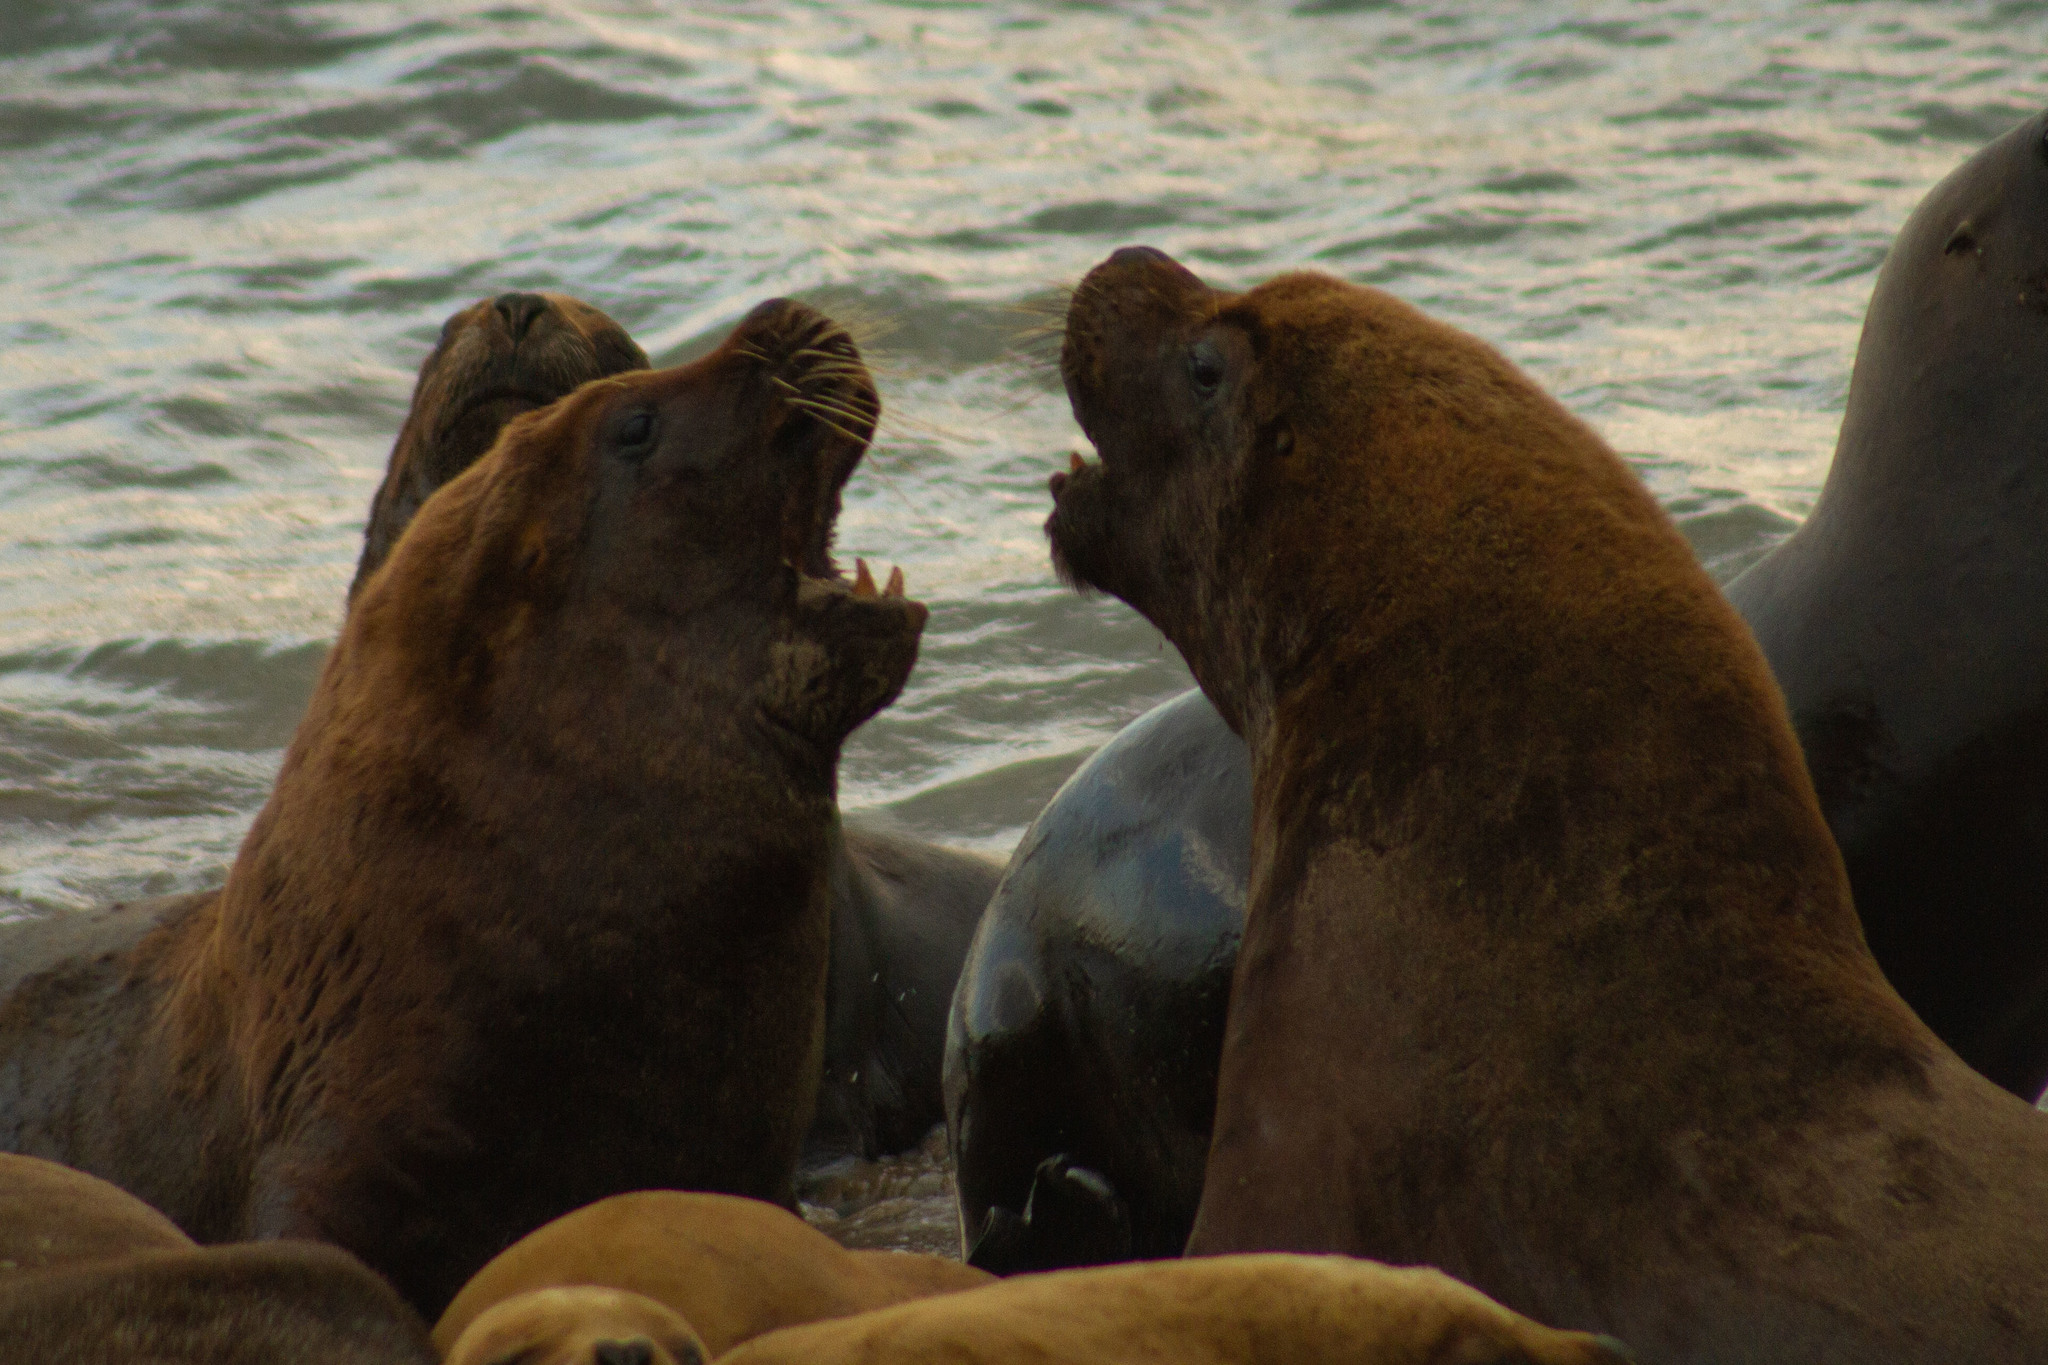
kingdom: Animalia
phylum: Chordata
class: Mammalia
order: Carnivora
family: Otariidae
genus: Otaria
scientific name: Otaria byronia
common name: South american sea lion
